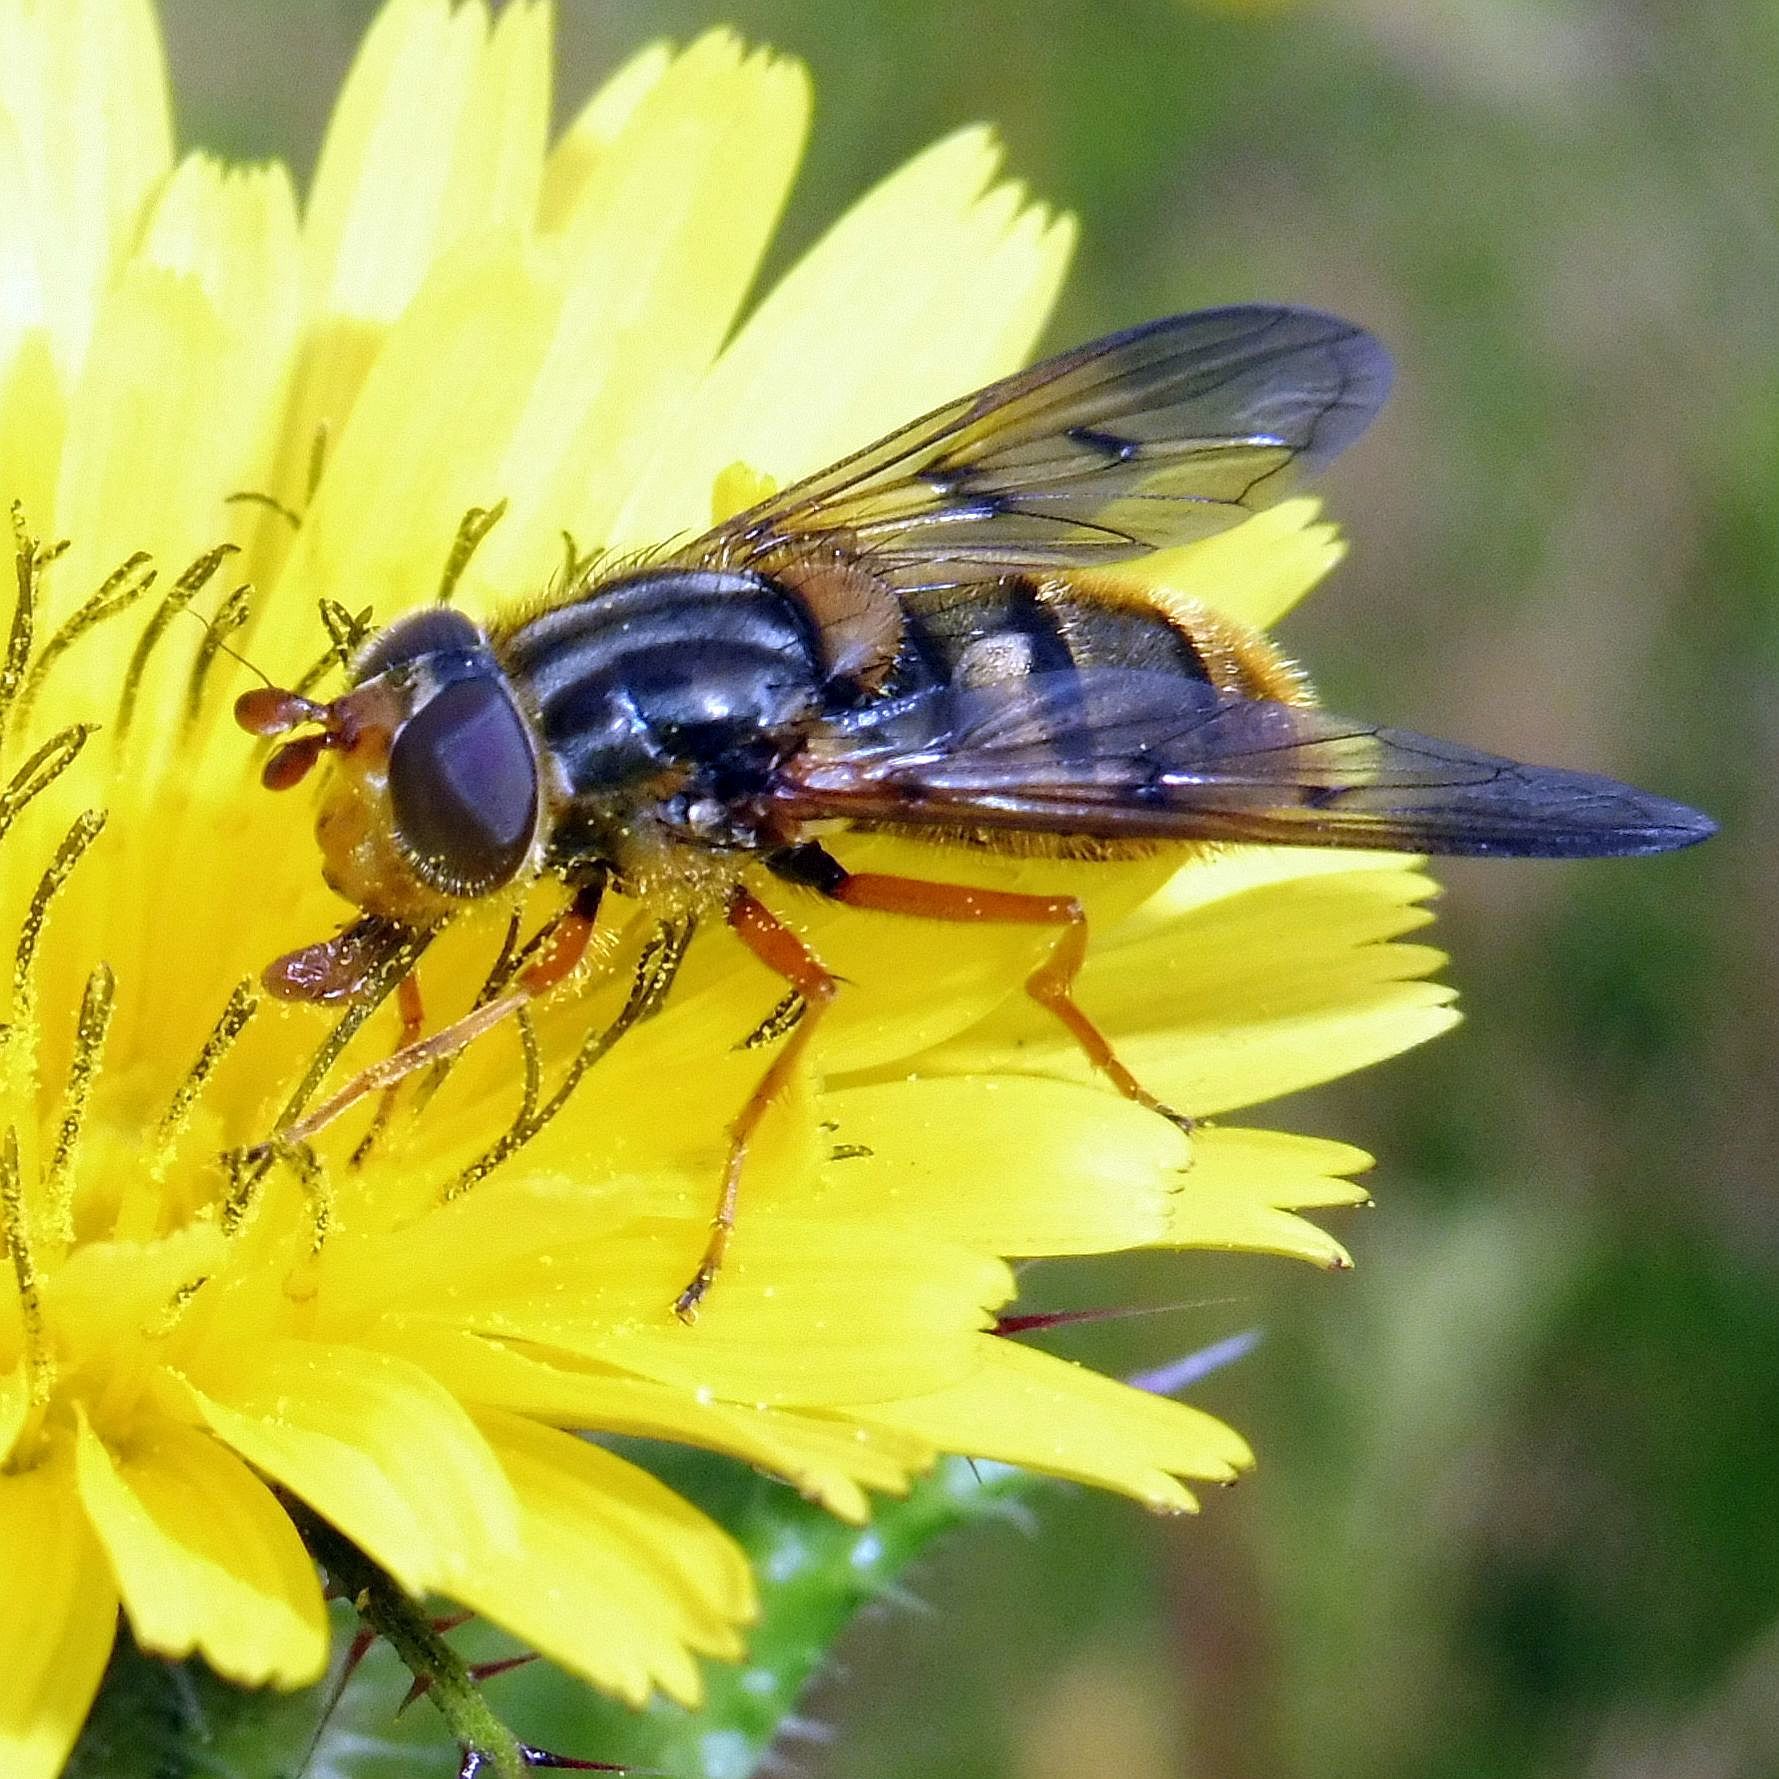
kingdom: Animalia
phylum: Arthropoda
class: Insecta
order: Diptera
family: Syrphidae
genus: Ferdinandea
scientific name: Ferdinandea cuprea
